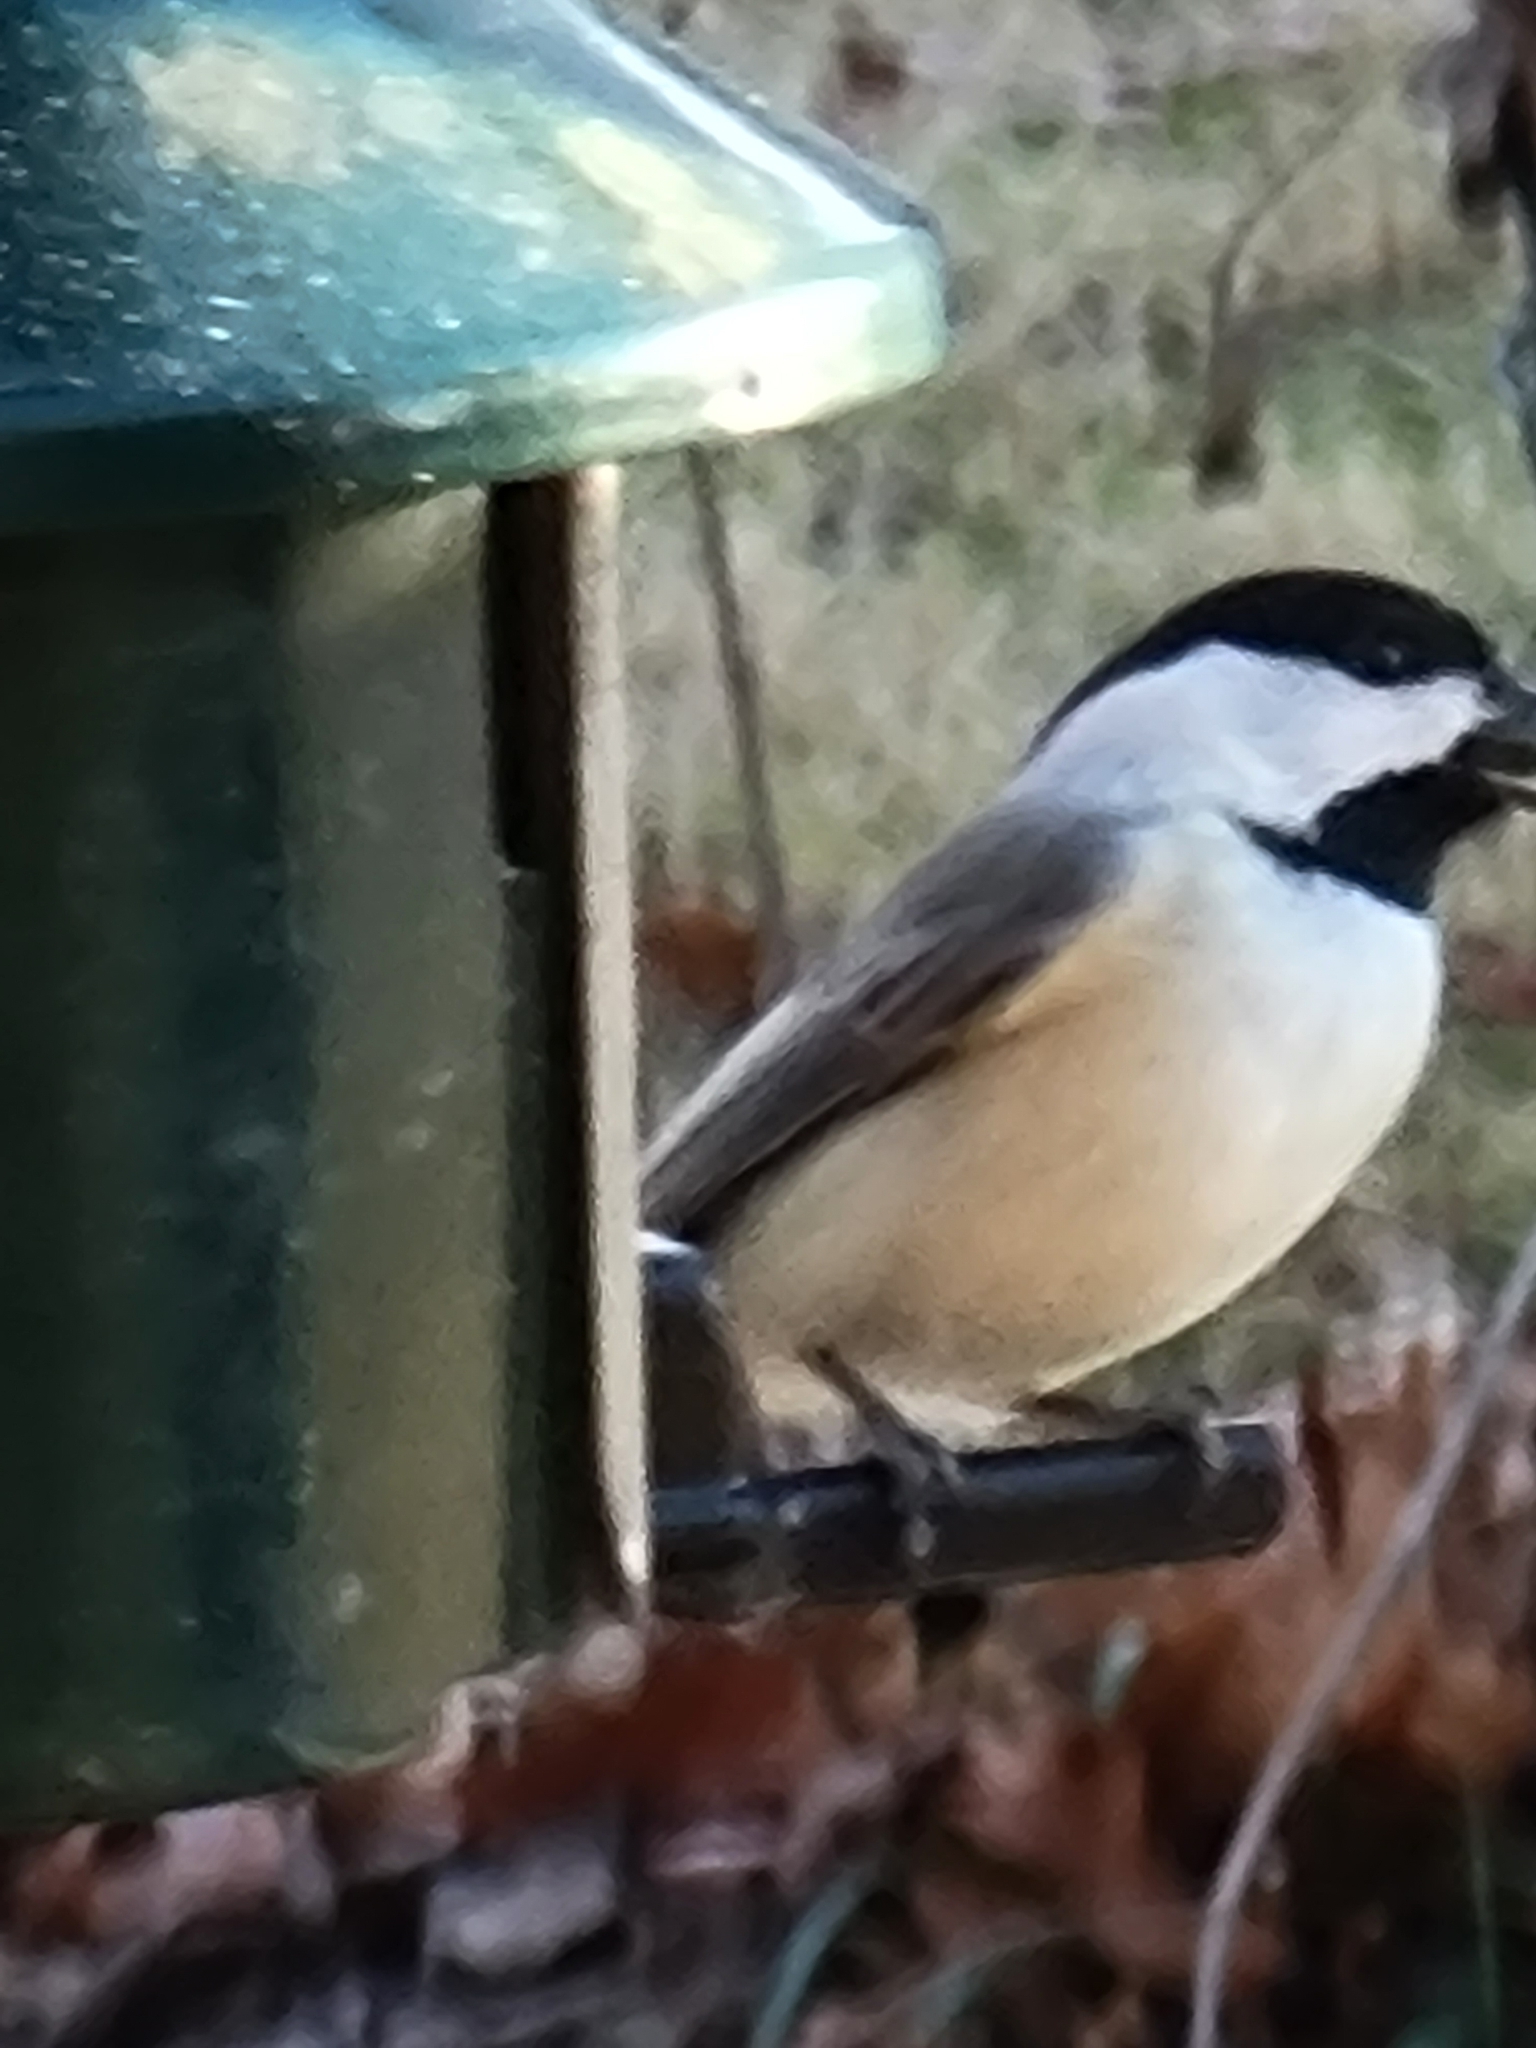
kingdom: Animalia
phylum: Chordata
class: Aves
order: Passeriformes
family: Paridae
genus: Poecile
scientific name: Poecile carolinensis
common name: Carolina chickadee
